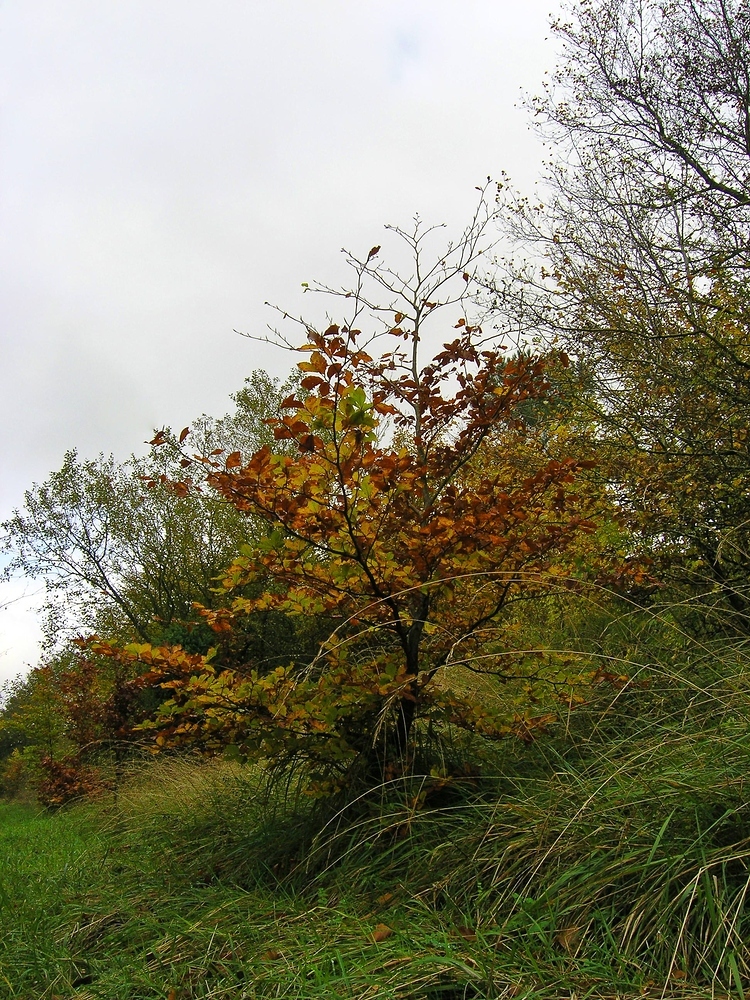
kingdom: Plantae
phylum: Tracheophyta
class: Magnoliopsida
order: Fagales
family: Fagaceae
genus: Fagus
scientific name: Fagus sylvatica
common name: Beech
